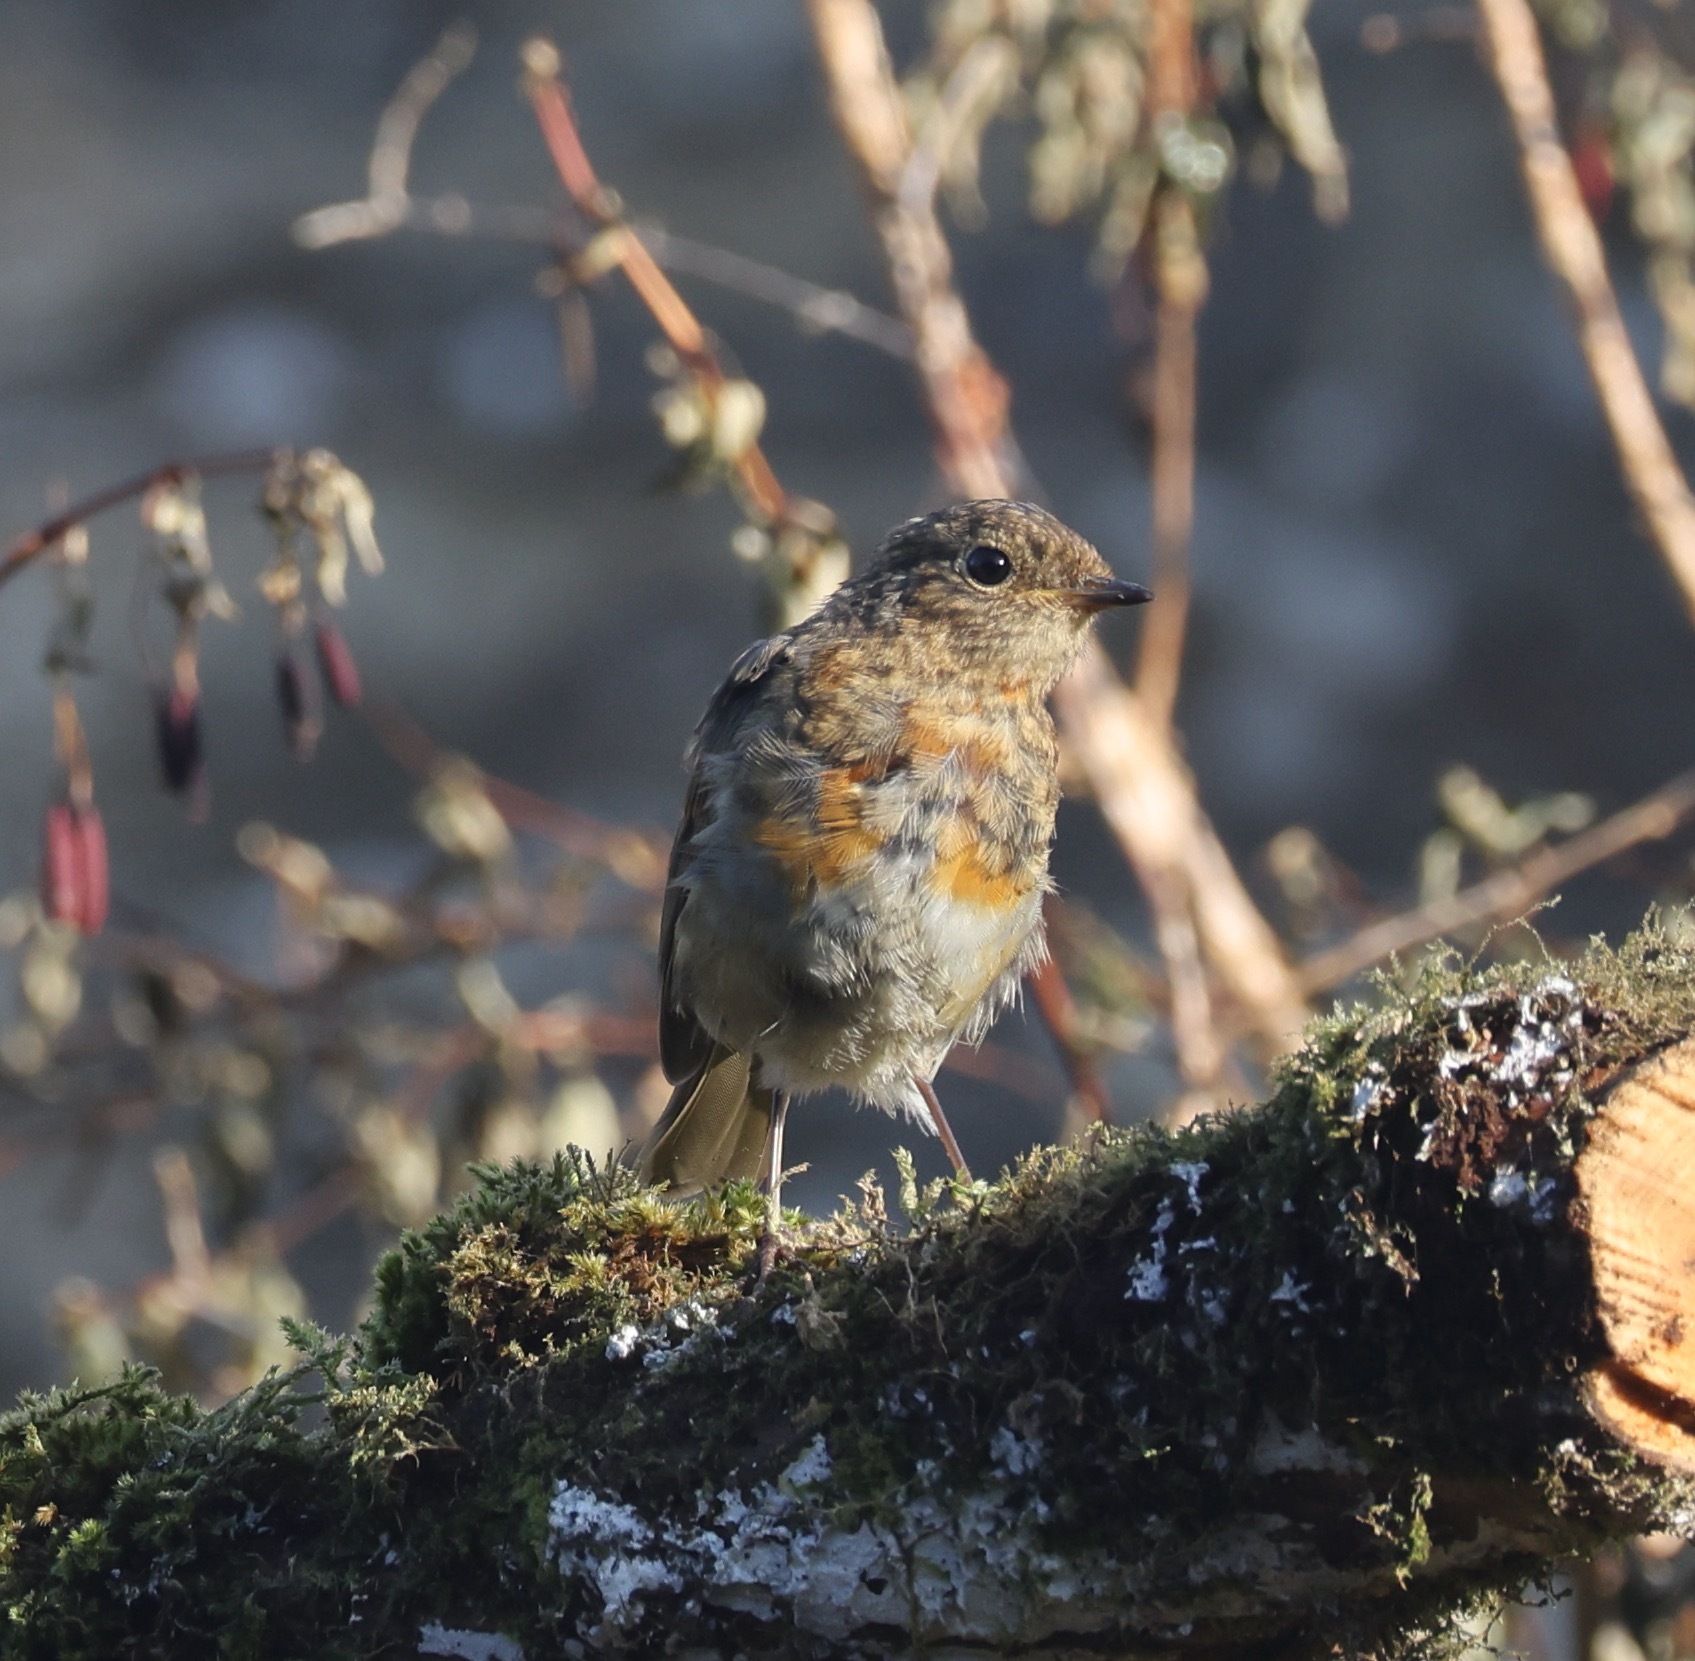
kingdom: Animalia
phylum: Chordata
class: Aves
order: Passeriformes
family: Muscicapidae
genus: Erithacus
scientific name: Erithacus rubecula
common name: European robin
